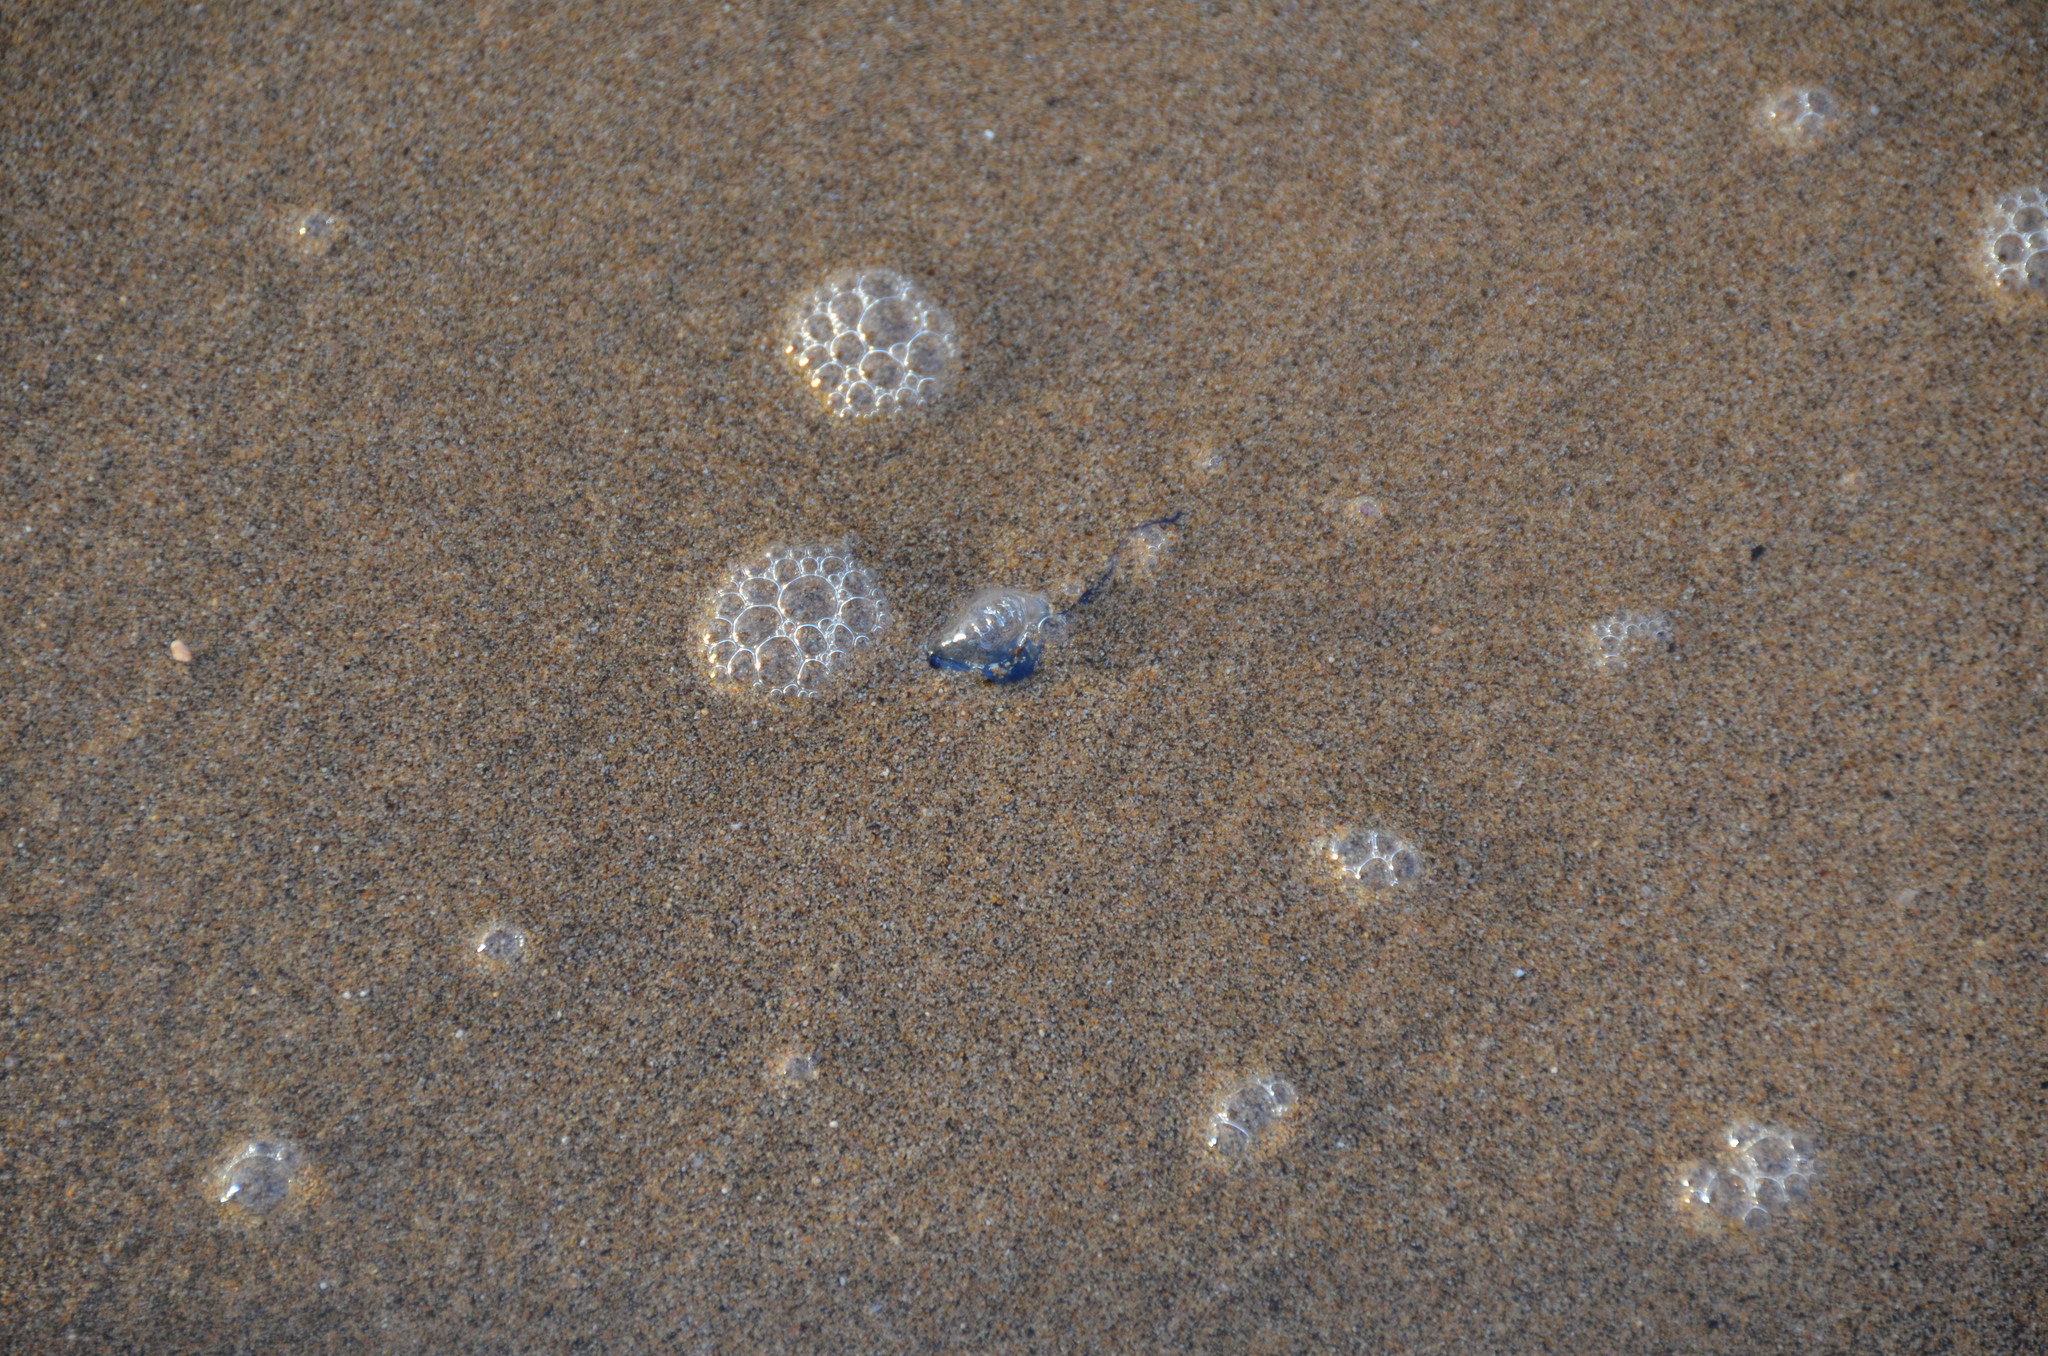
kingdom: Animalia
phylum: Cnidaria
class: Hydrozoa
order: Siphonophorae
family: Physaliidae
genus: Physalia
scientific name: Physalia physalis
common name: Portuguese man-of-war
